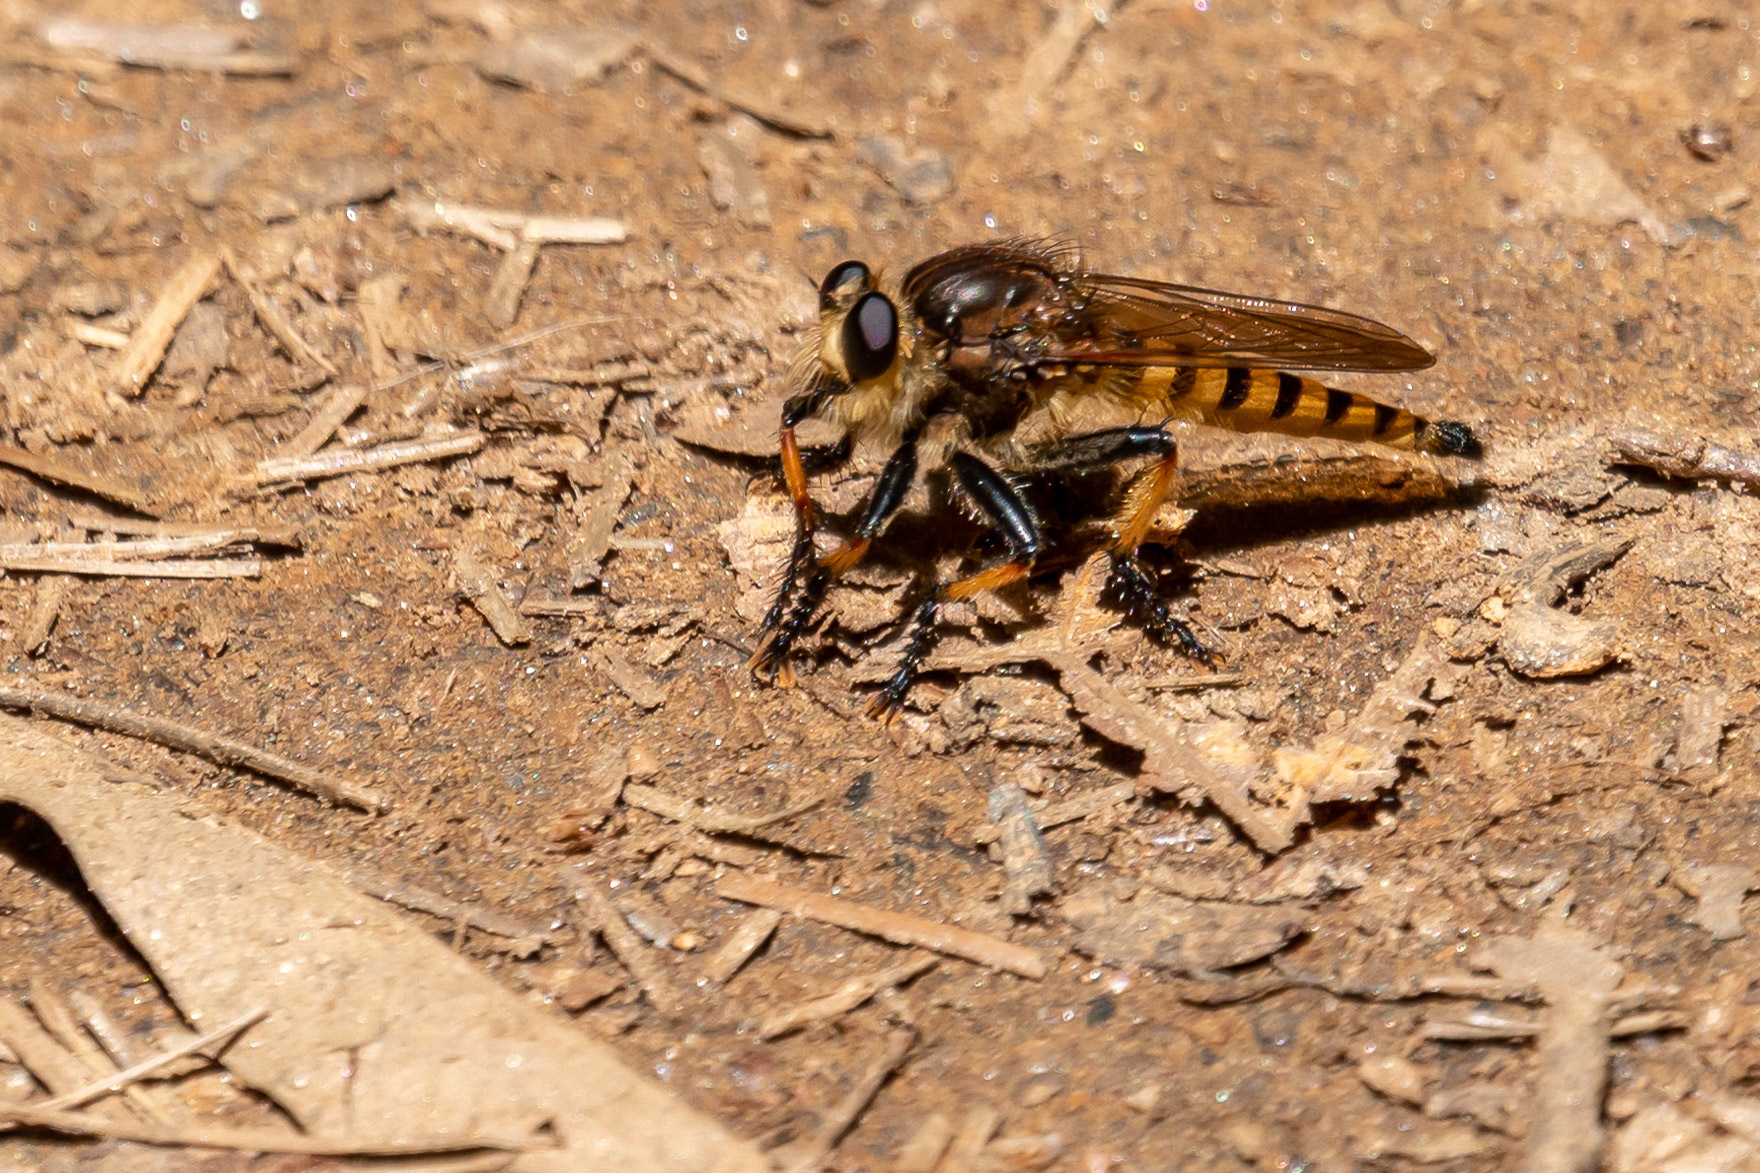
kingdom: Animalia
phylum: Arthropoda
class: Insecta
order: Diptera
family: Asilidae
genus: Promachus
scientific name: Promachus rufipes
